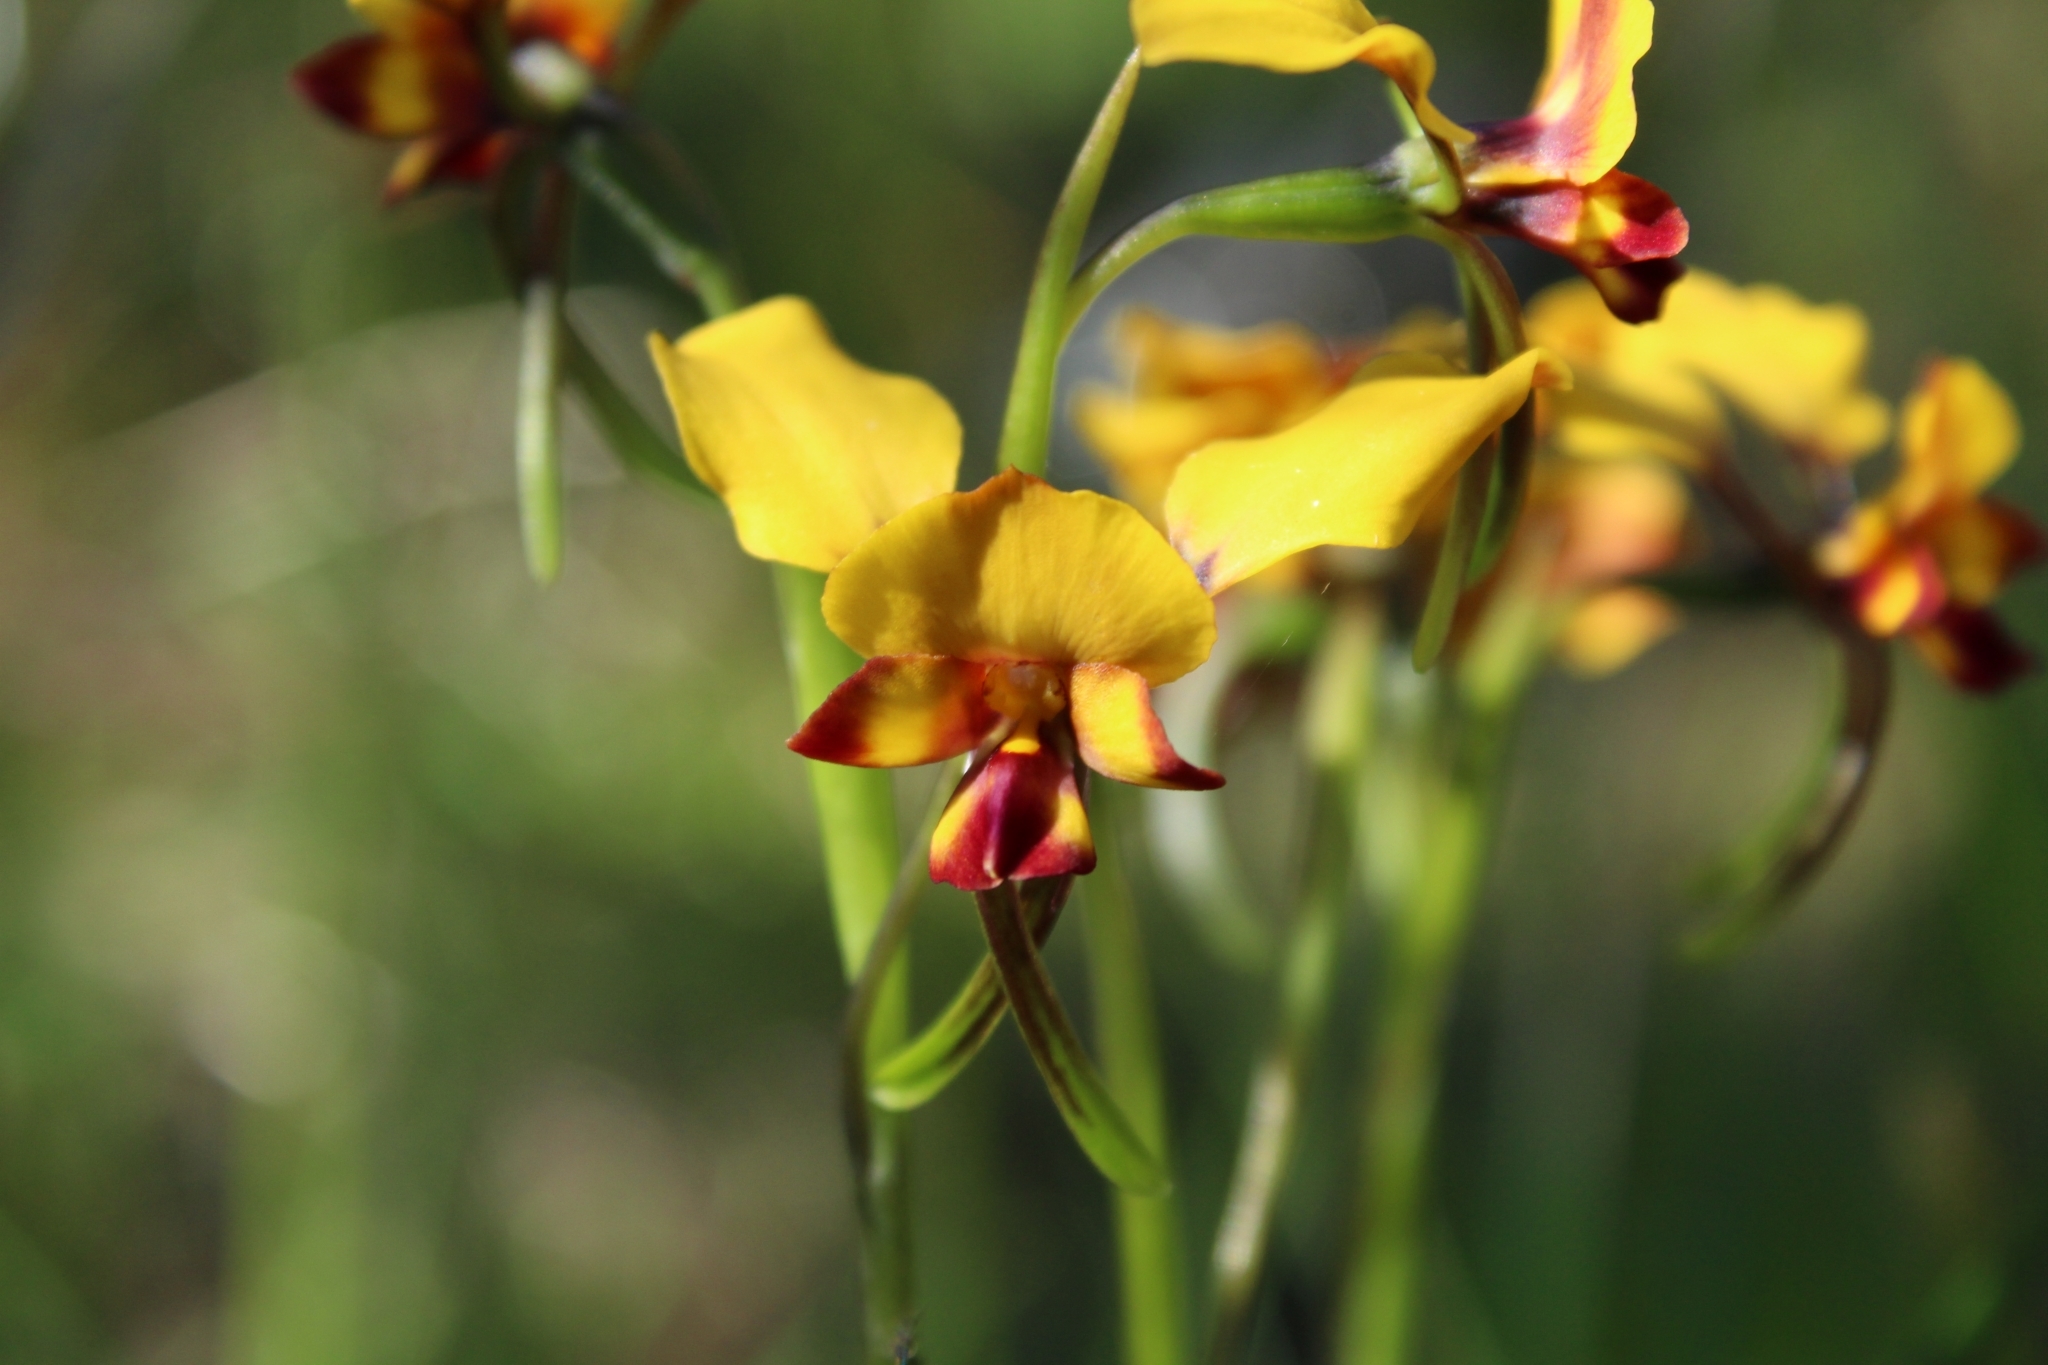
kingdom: Plantae
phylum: Tracheophyta
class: Liliopsida
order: Asparagales
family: Orchidaceae
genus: Diuris
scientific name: Diuris corymbosa
